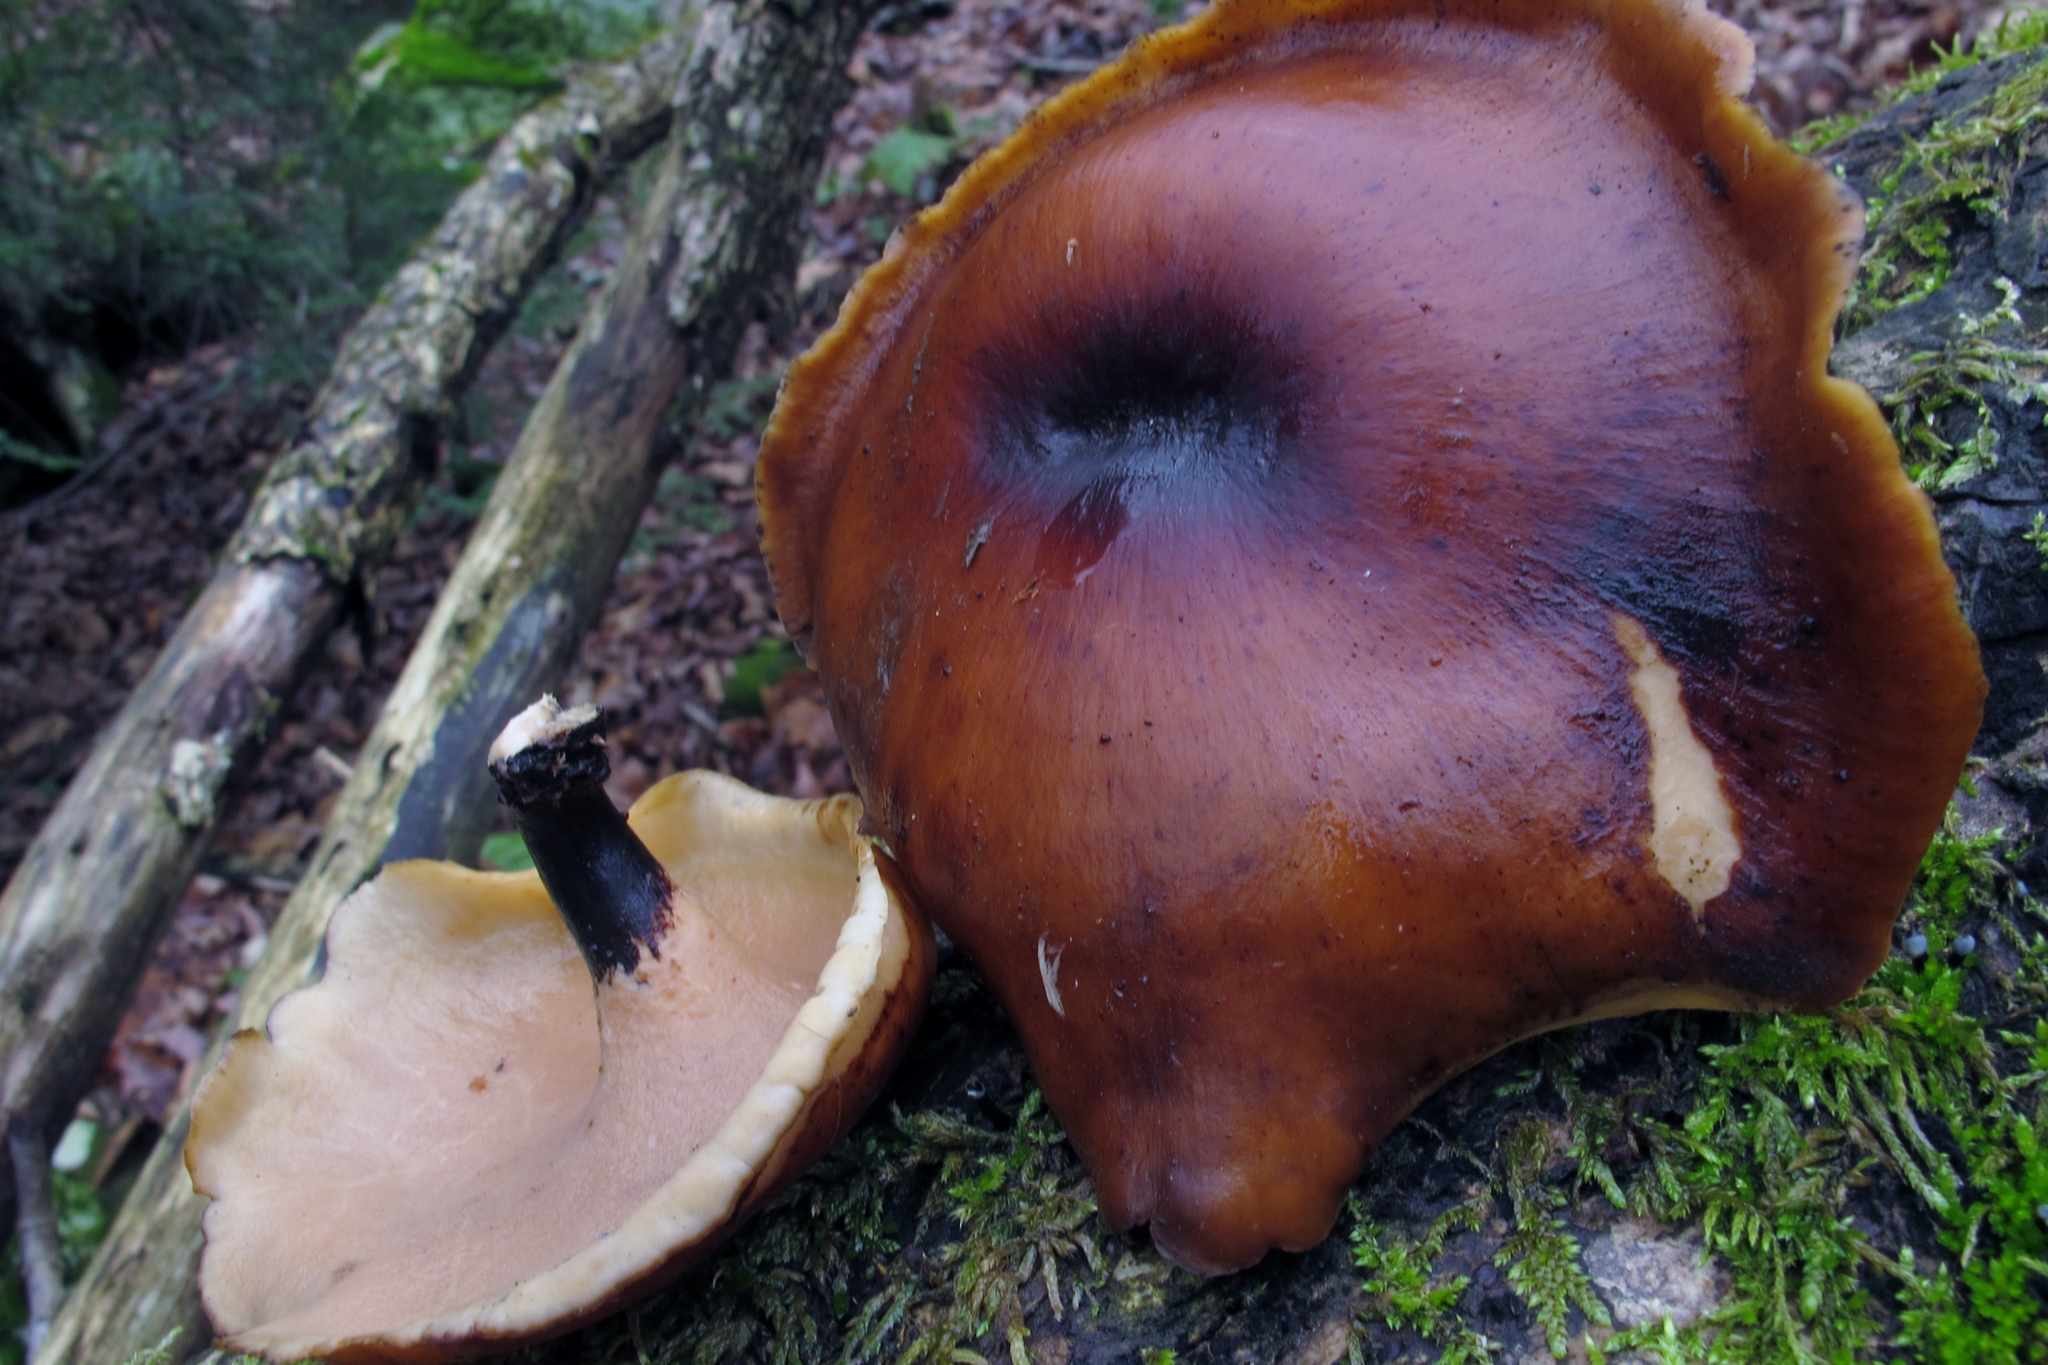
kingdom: Fungi
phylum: Basidiomycota
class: Agaricomycetes
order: Polyporales
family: Polyporaceae
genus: Picipes
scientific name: Picipes badius
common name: Bay polypore
